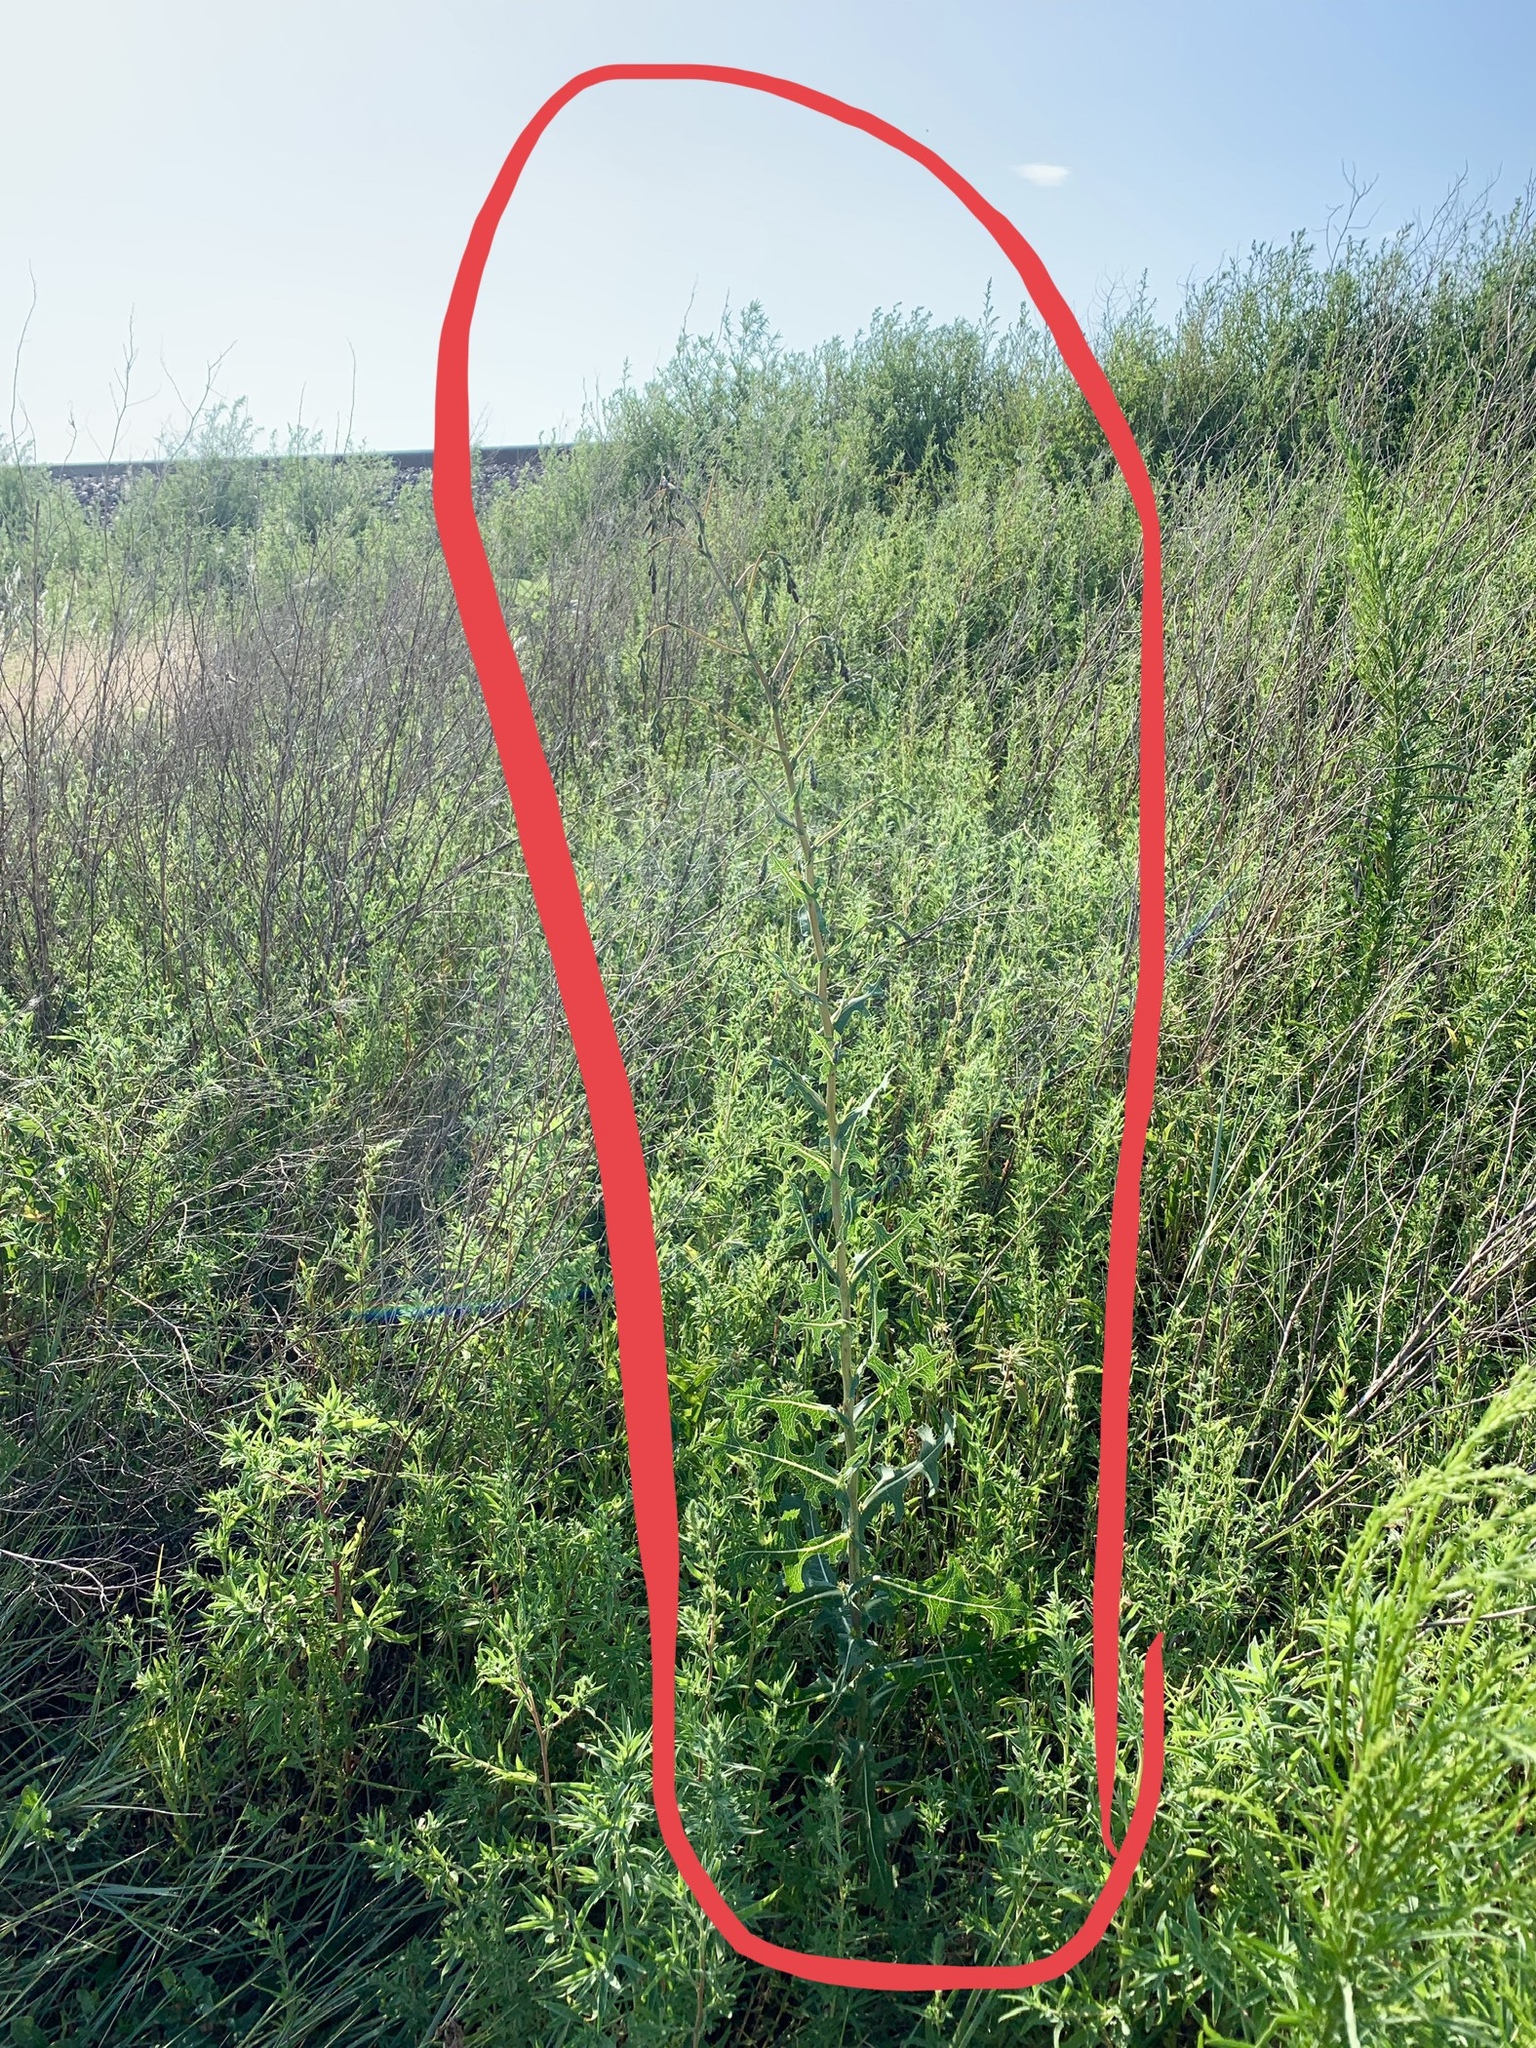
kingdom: Plantae
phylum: Tracheophyta
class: Magnoliopsida
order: Asterales
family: Asteraceae
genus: Lactuca
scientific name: Lactuca serriola
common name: Prickly lettuce
